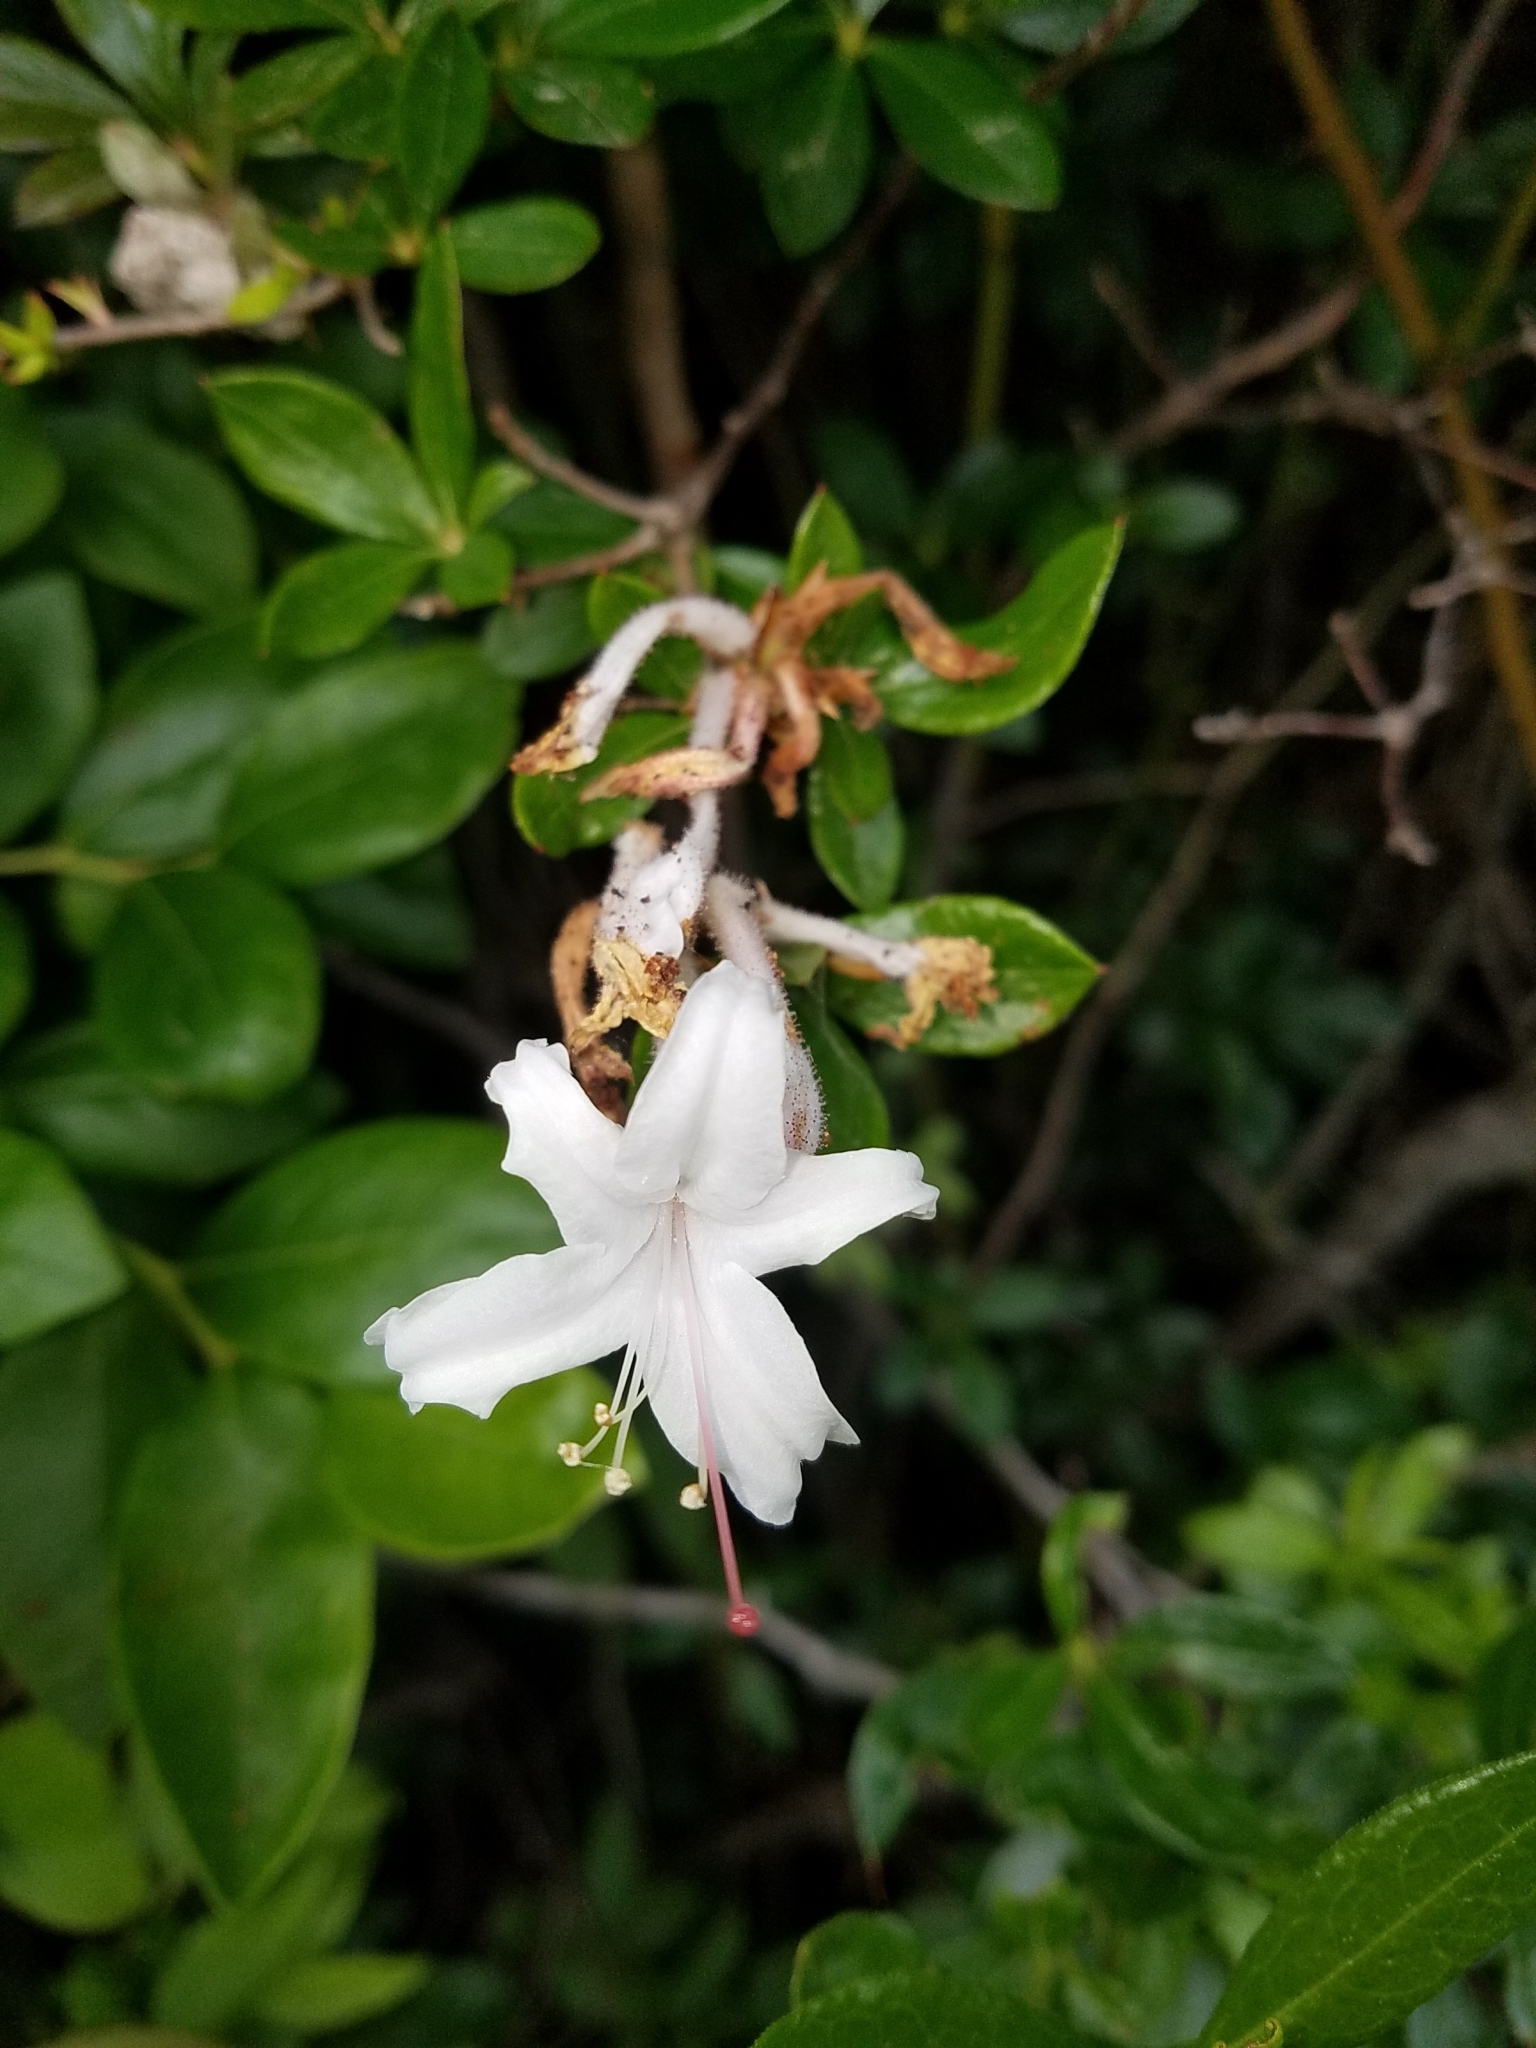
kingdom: Plantae
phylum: Tracheophyta
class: Magnoliopsida
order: Ericales
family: Ericaceae
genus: Rhododendron
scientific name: Rhododendron viscosum
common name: Clammy azalea
